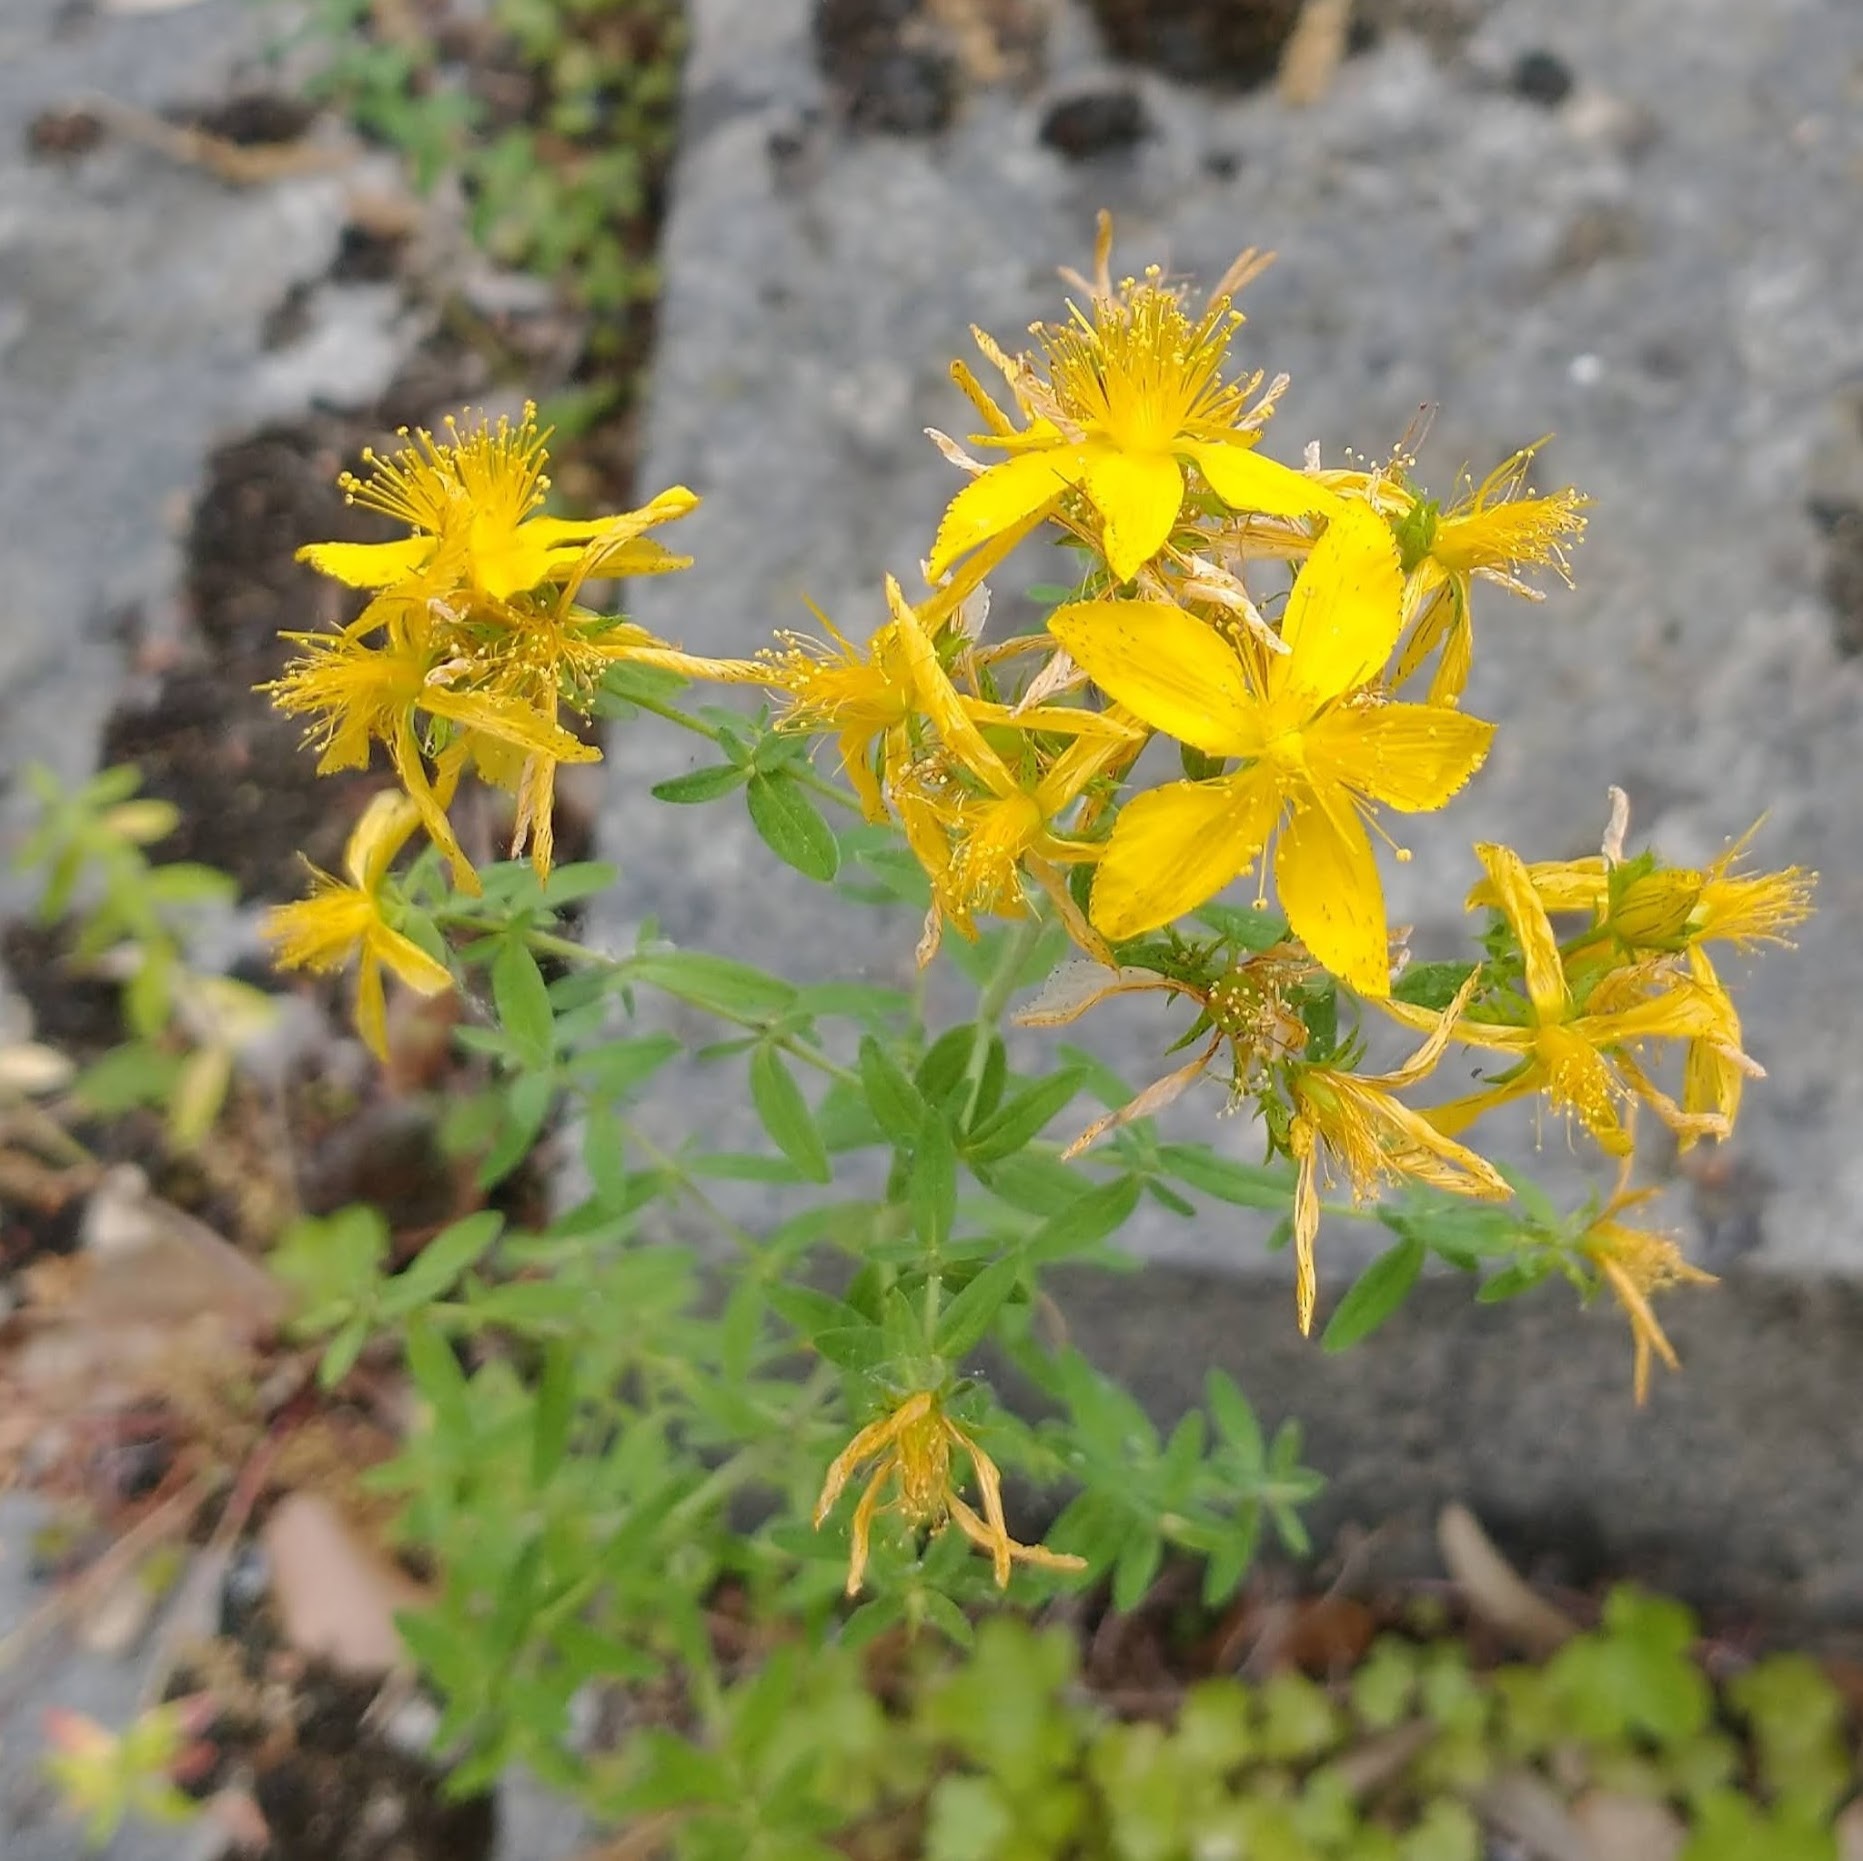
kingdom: Plantae
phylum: Tracheophyta
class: Magnoliopsida
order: Malpighiales
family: Hypericaceae
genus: Hypericum
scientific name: Hypericum perforatum
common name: Common st. johnswort
